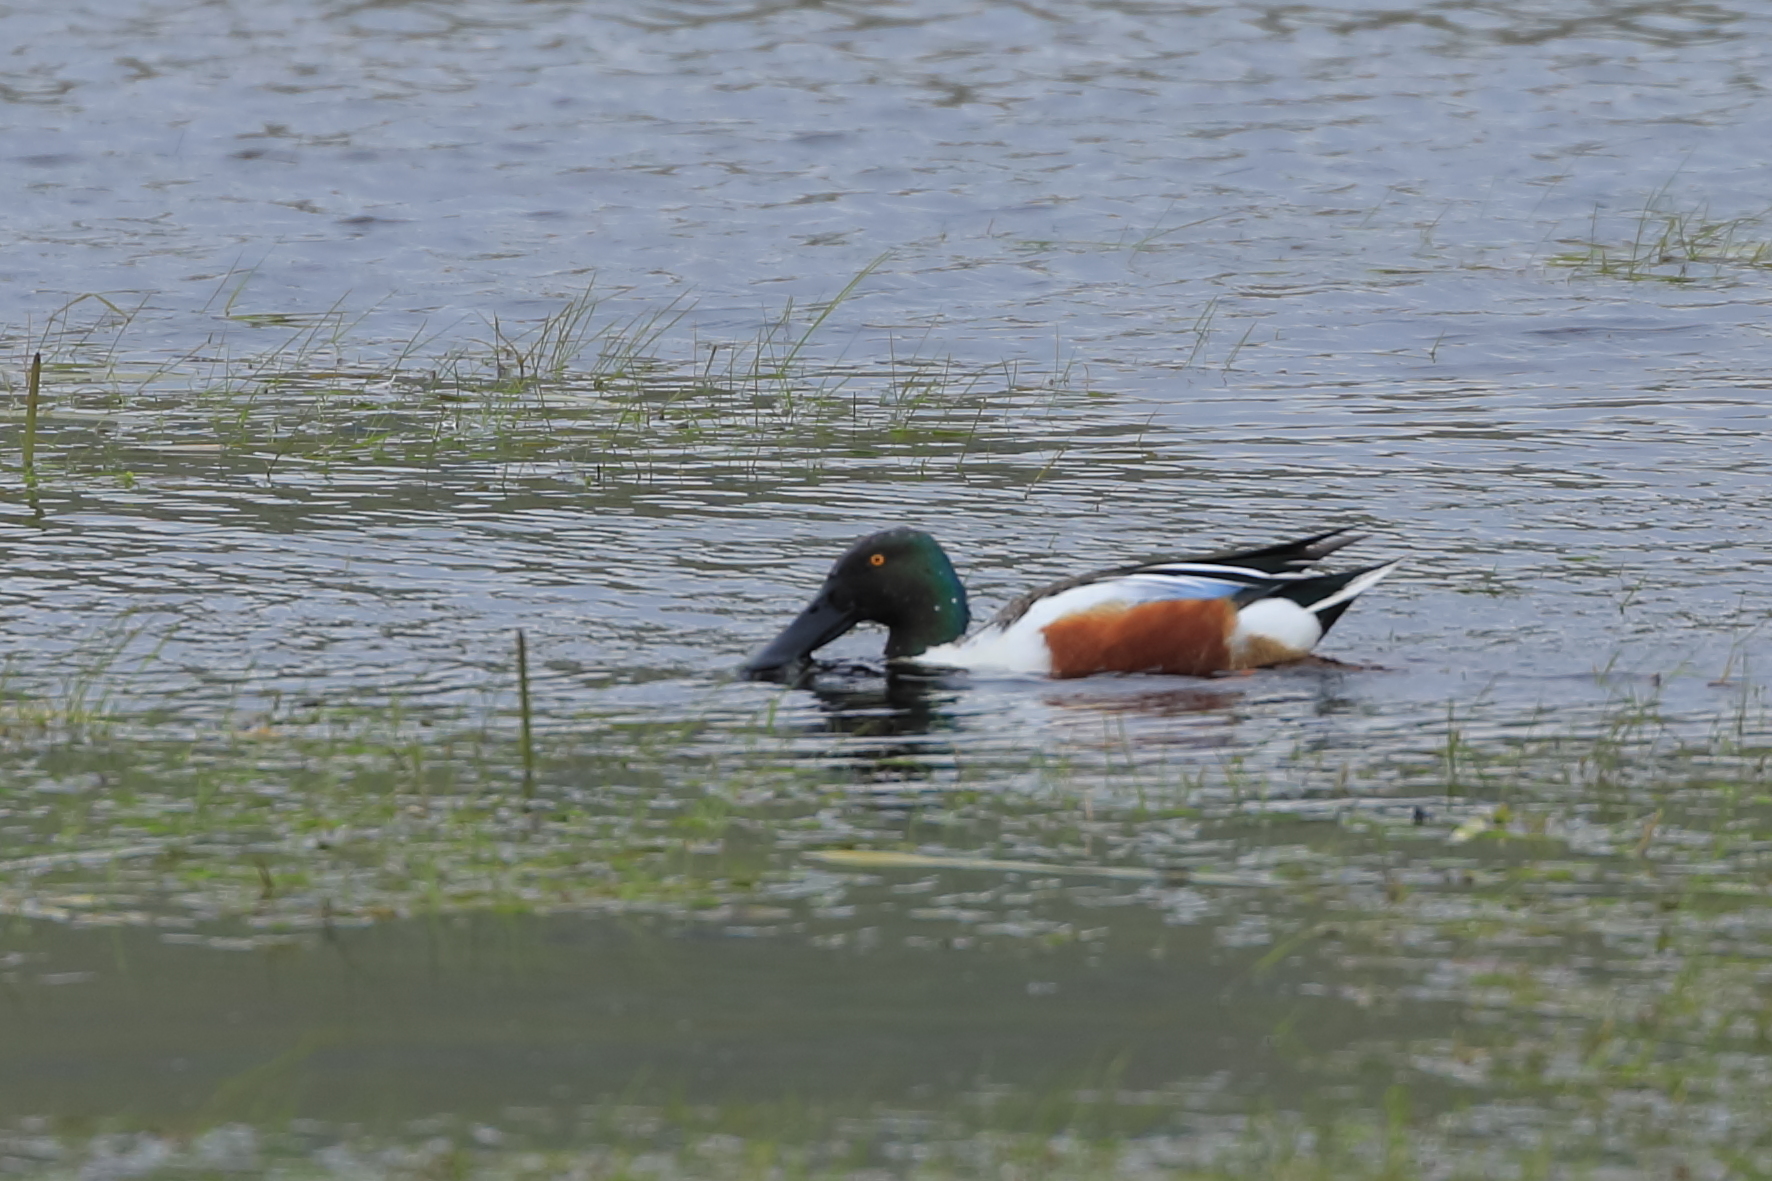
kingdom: Animalia
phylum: Chordata
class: Aves
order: Anseriformes
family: Anatidae
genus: Spatula
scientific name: Spatula clypeata
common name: Northern shoveler
